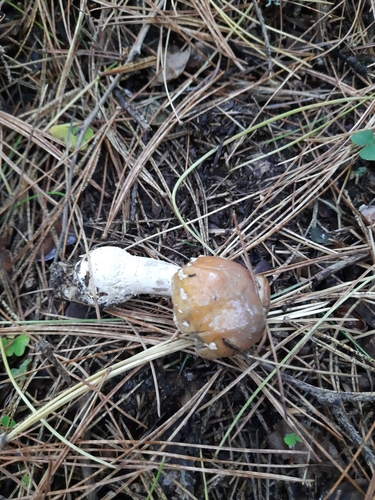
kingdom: Fungi
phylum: Basidiomycota
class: Agaricomycetes
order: Agaricales
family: Amanitaceae
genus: Amanita
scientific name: Amanita regalis
